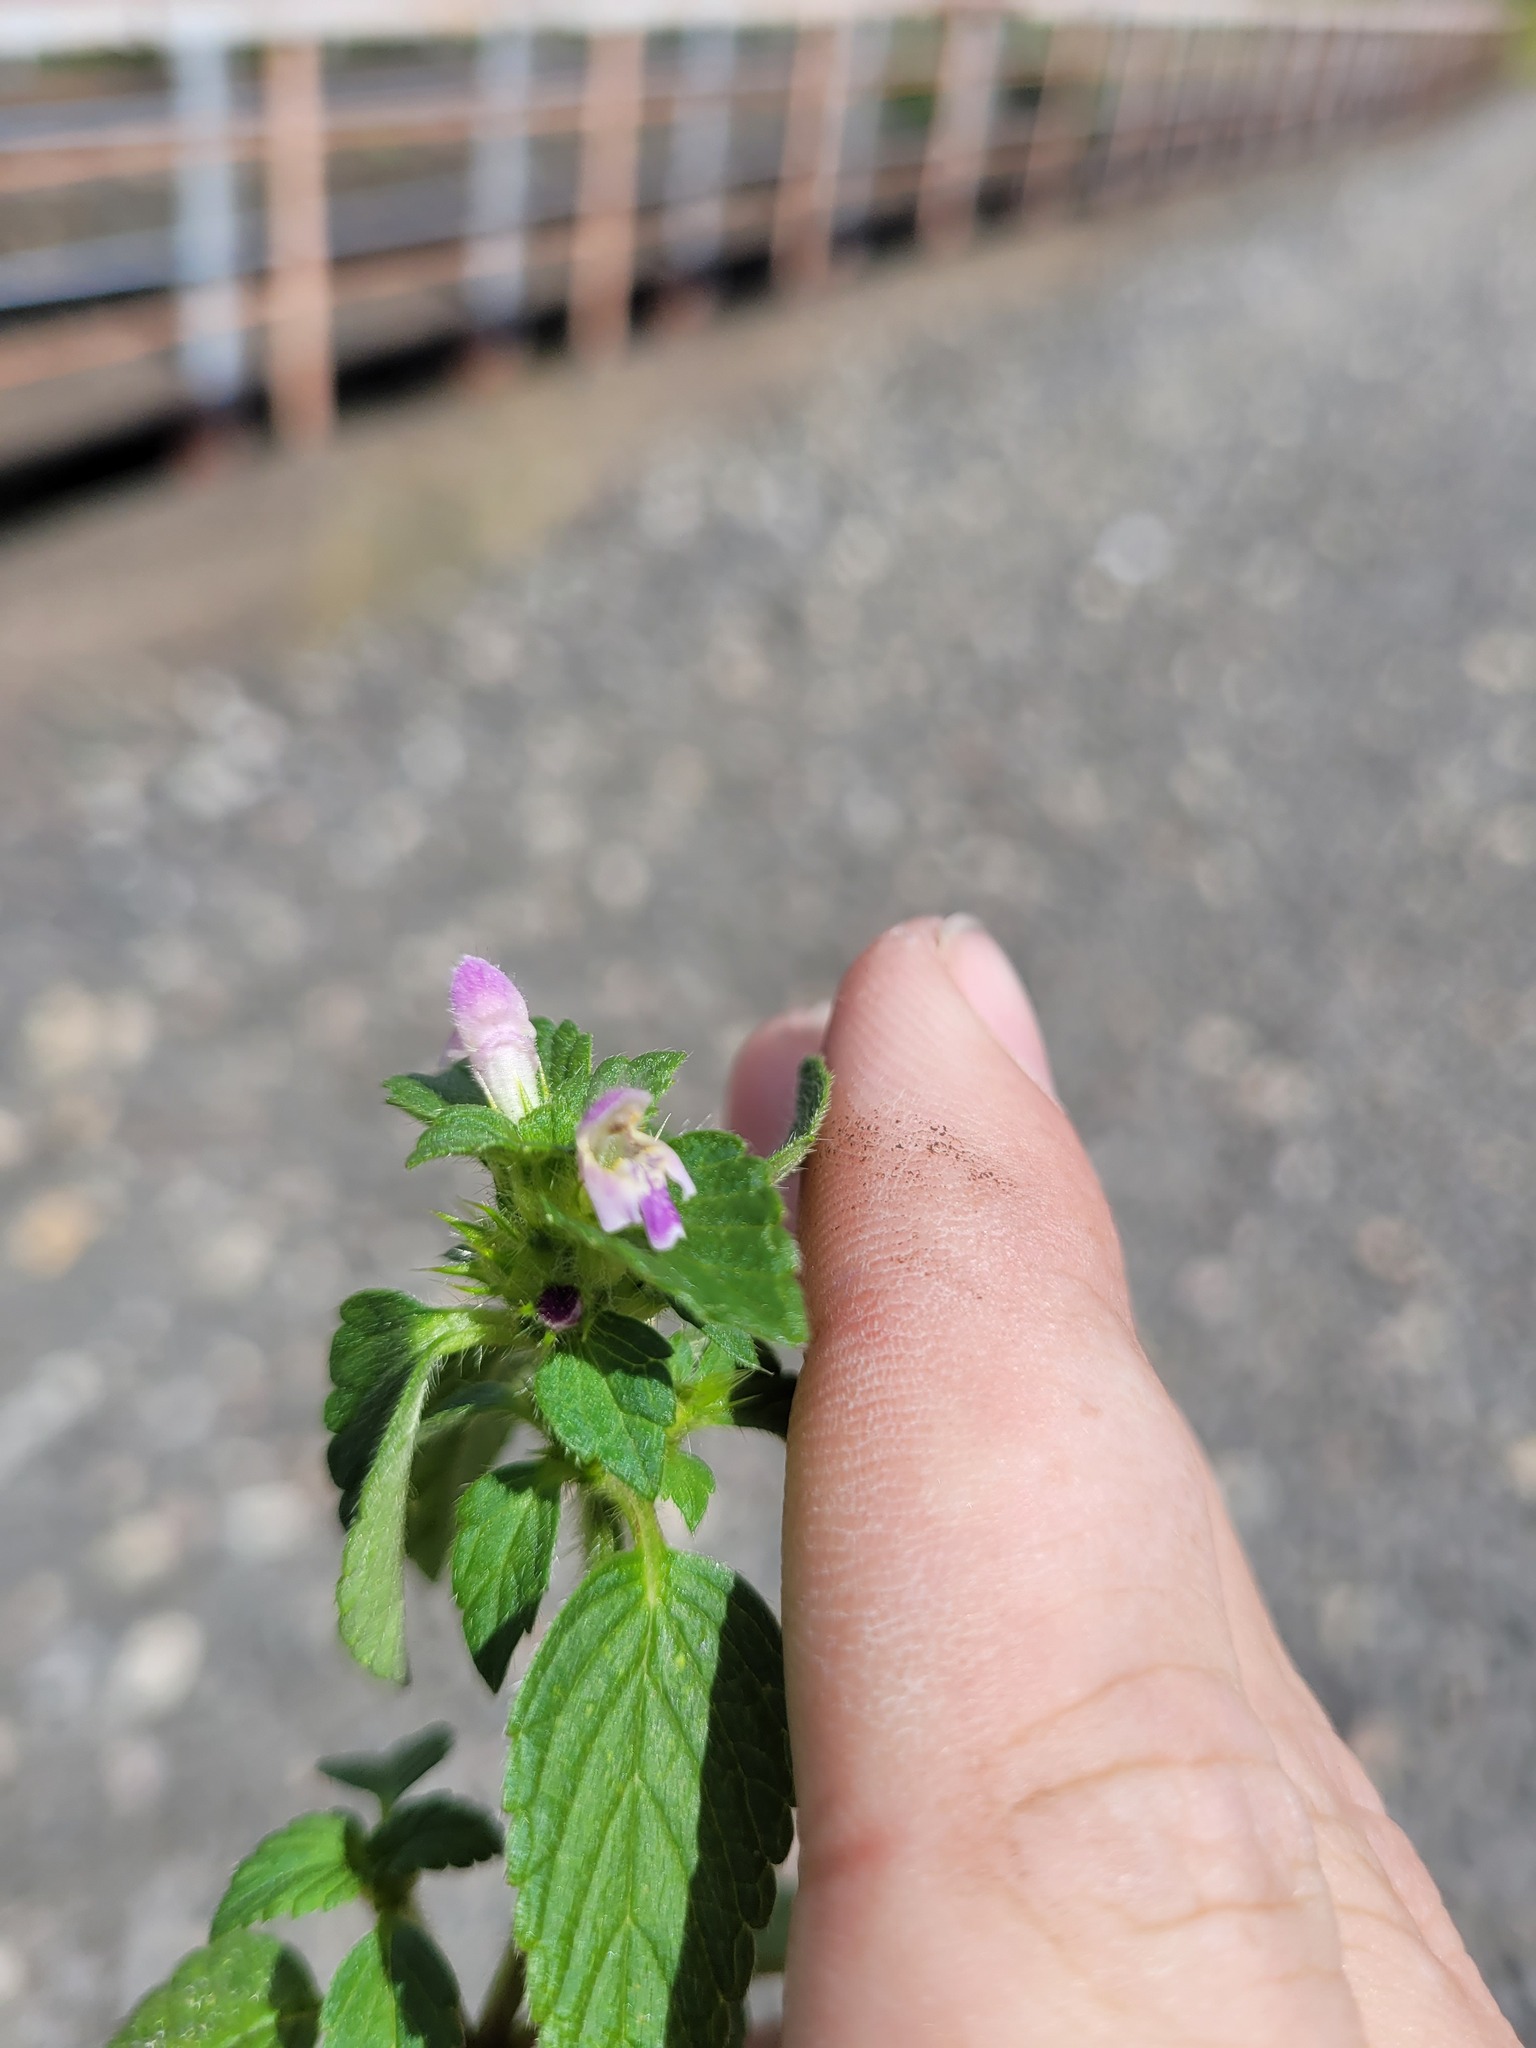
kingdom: Plantae
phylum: Tracheophyta
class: Magnoliopsida
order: Lamiales
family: Lamiaceae
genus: Galeopsis
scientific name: Galeopsis bifida
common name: Bifid hemp-nettle
